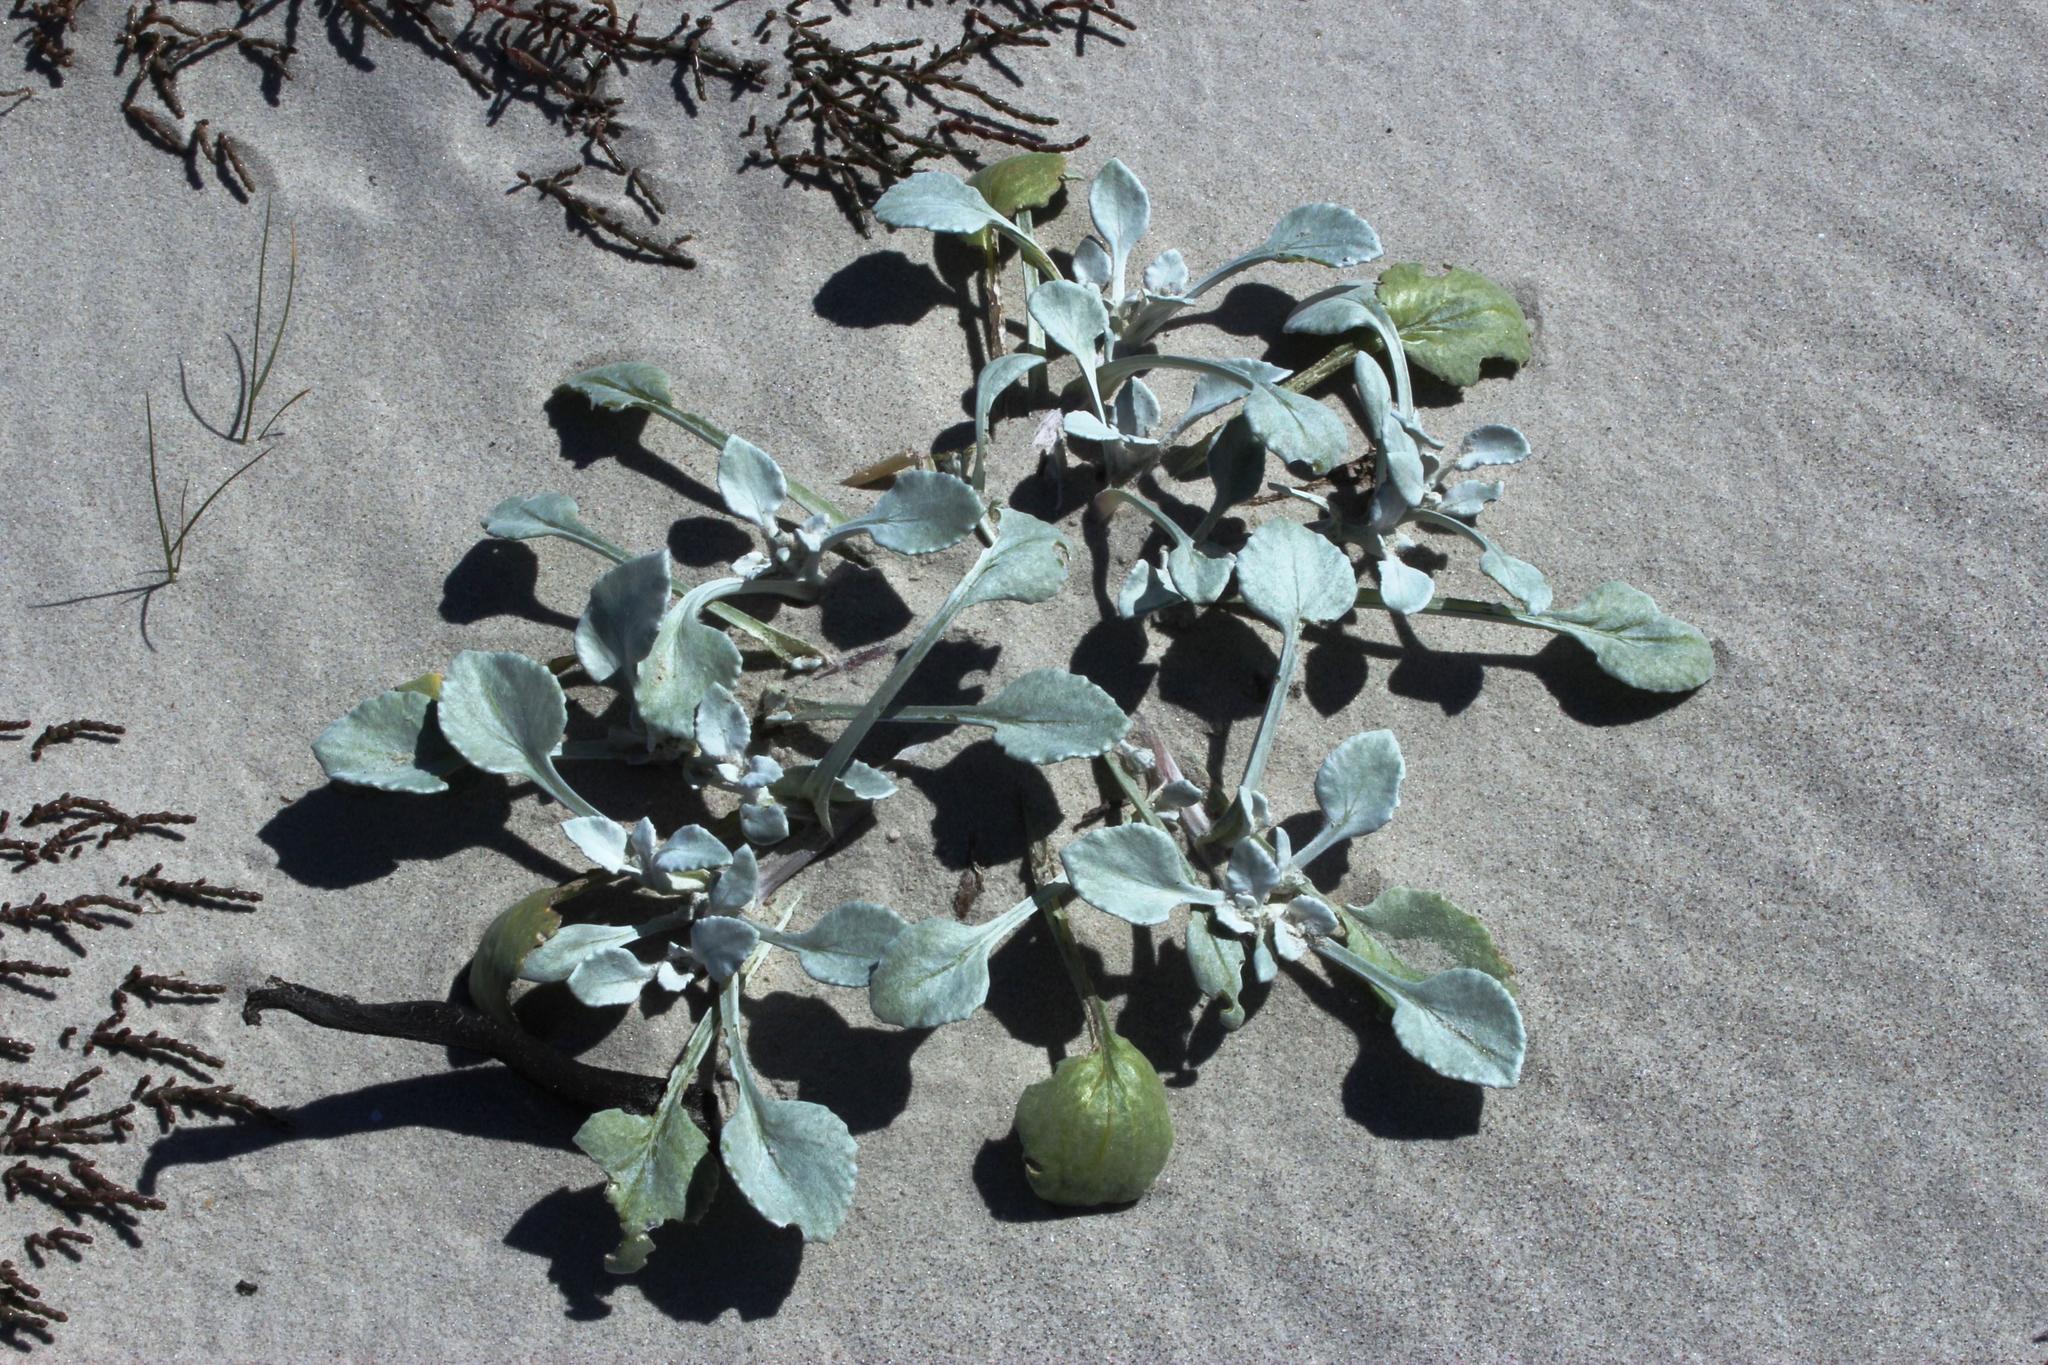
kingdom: Plantae
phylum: Tracheophyta
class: Magnoliopsida
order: Asterales
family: Asteraceae
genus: Arctotheca
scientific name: Arctotheca populifolia
